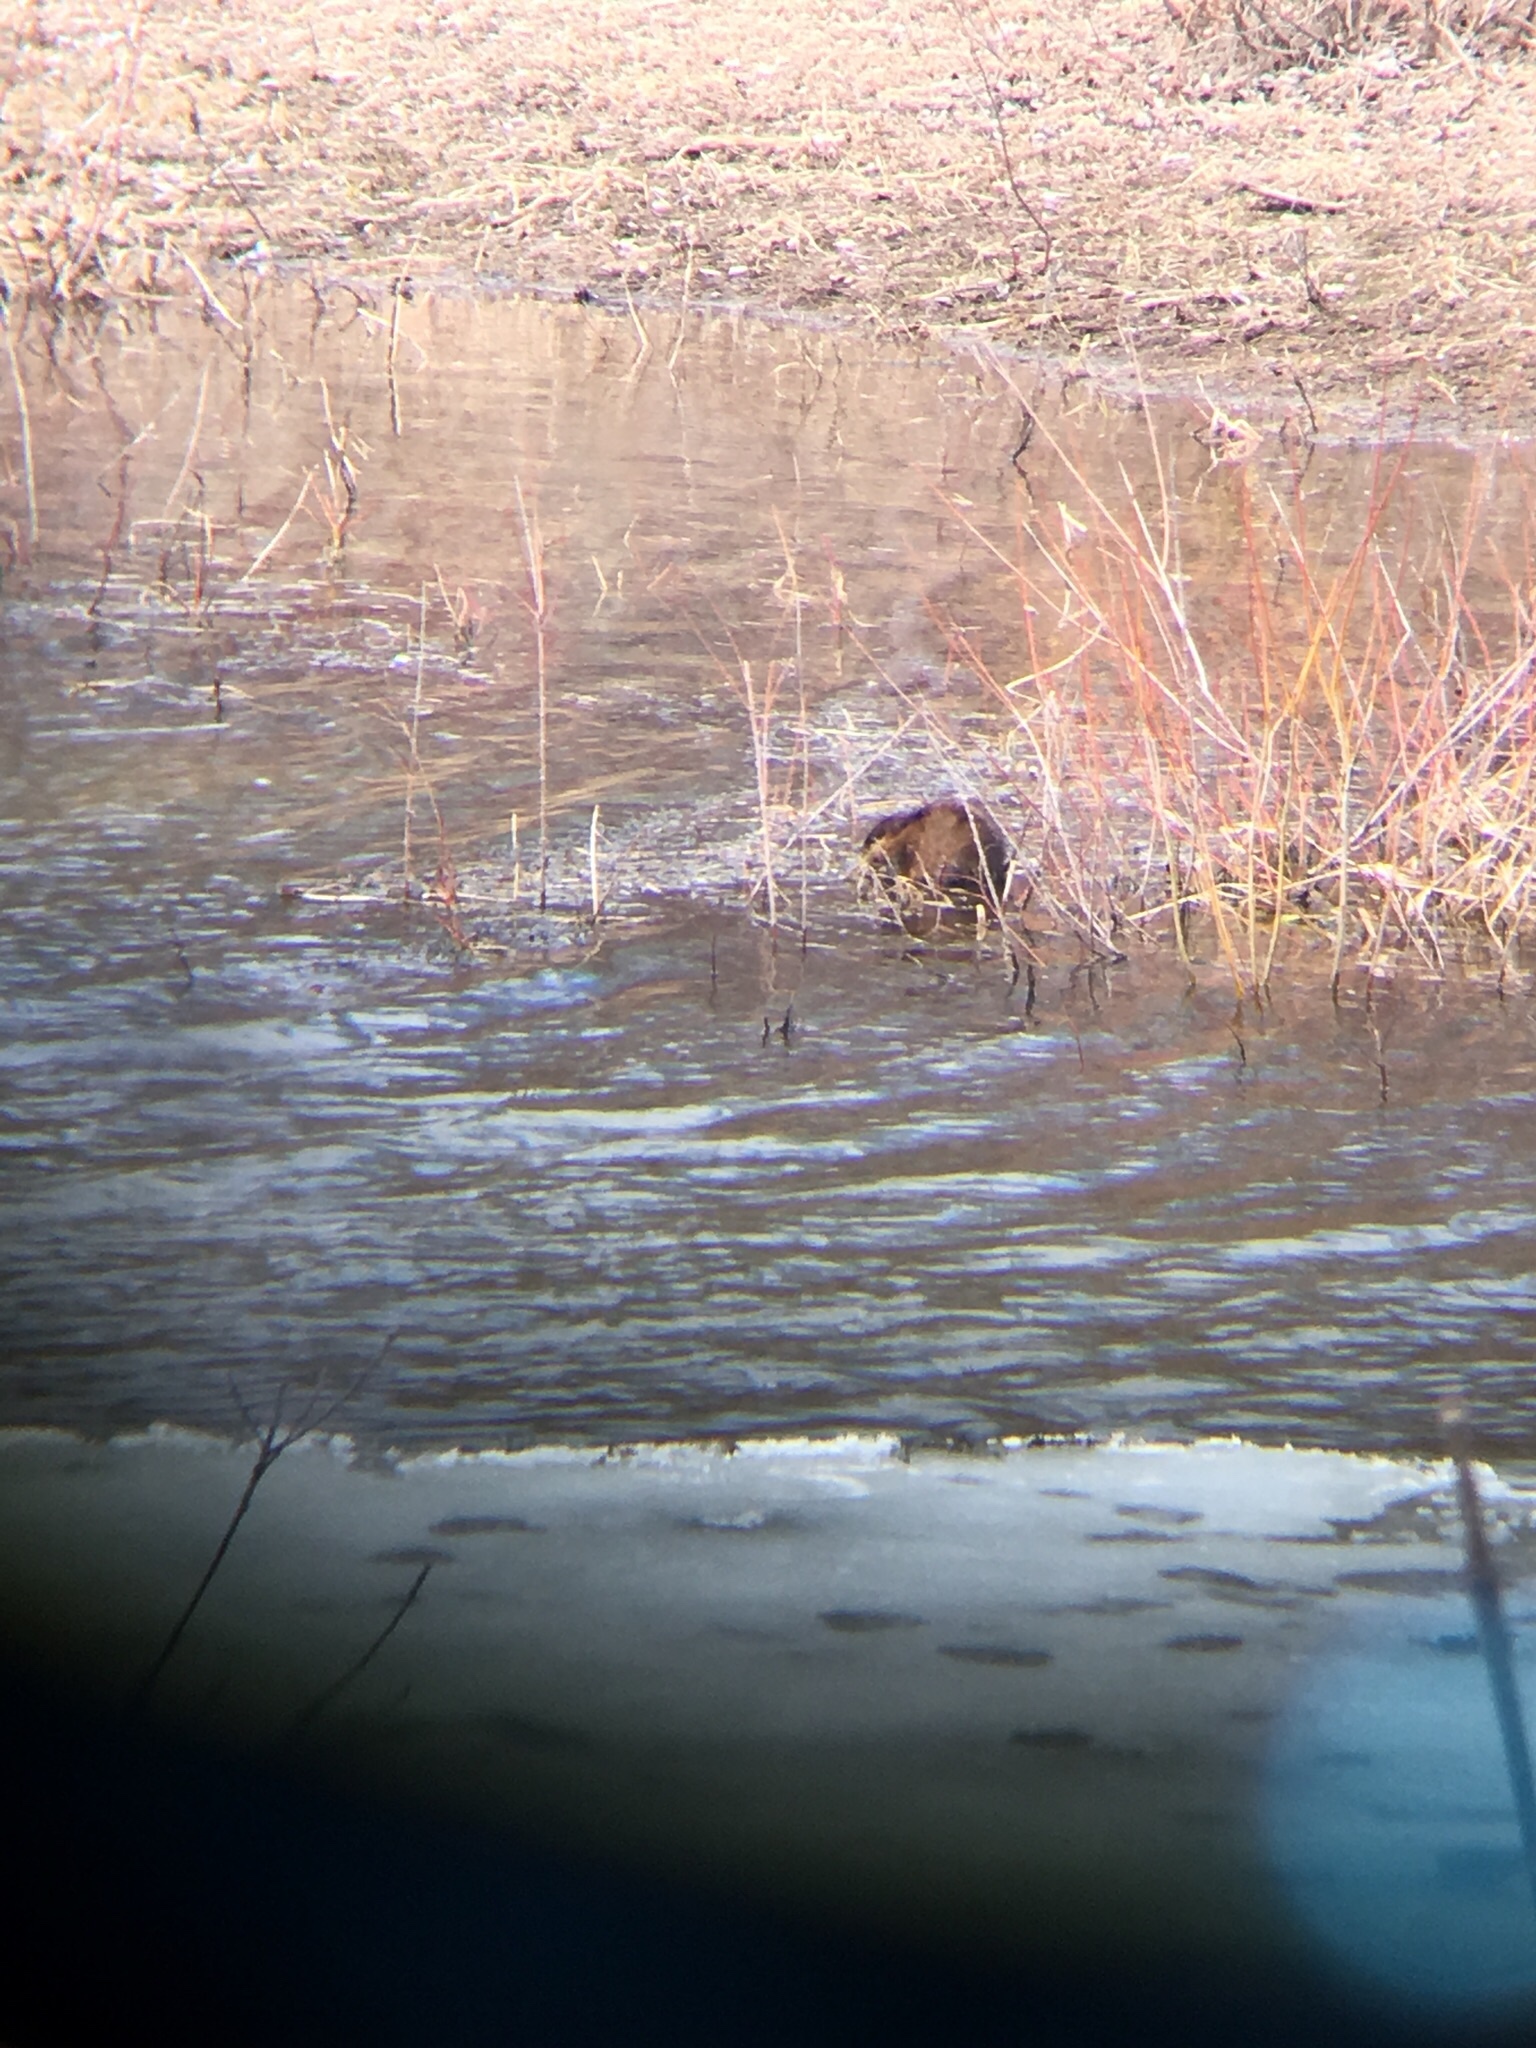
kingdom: Animalia
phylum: Chordata
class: Mammalia
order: Rodentia
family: Cricetidae
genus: Ondatra
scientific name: Ondatra zibethicus
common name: Muskrat
